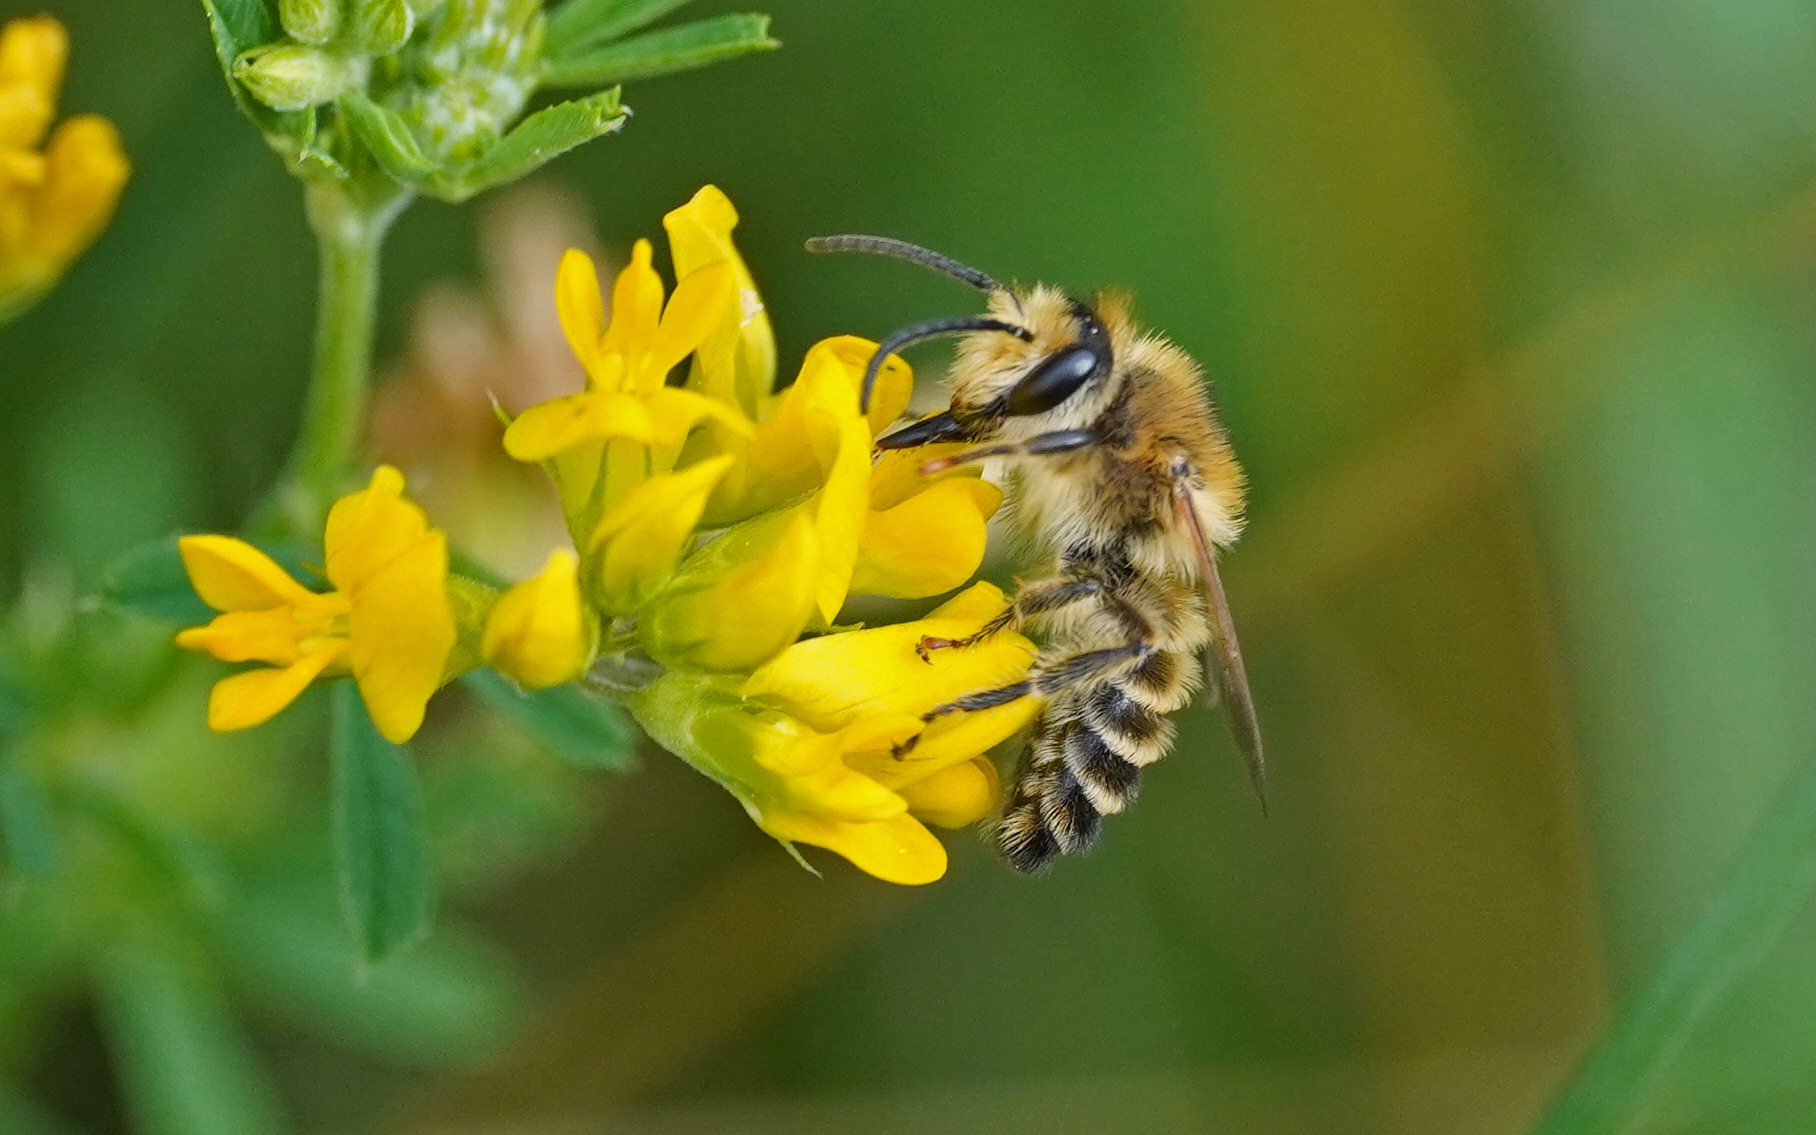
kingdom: Animalia
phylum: Arthropoda
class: Insecta
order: Hymenoptera
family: Melittidae
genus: Melitta
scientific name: Melitta leporina
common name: Clover melitta
